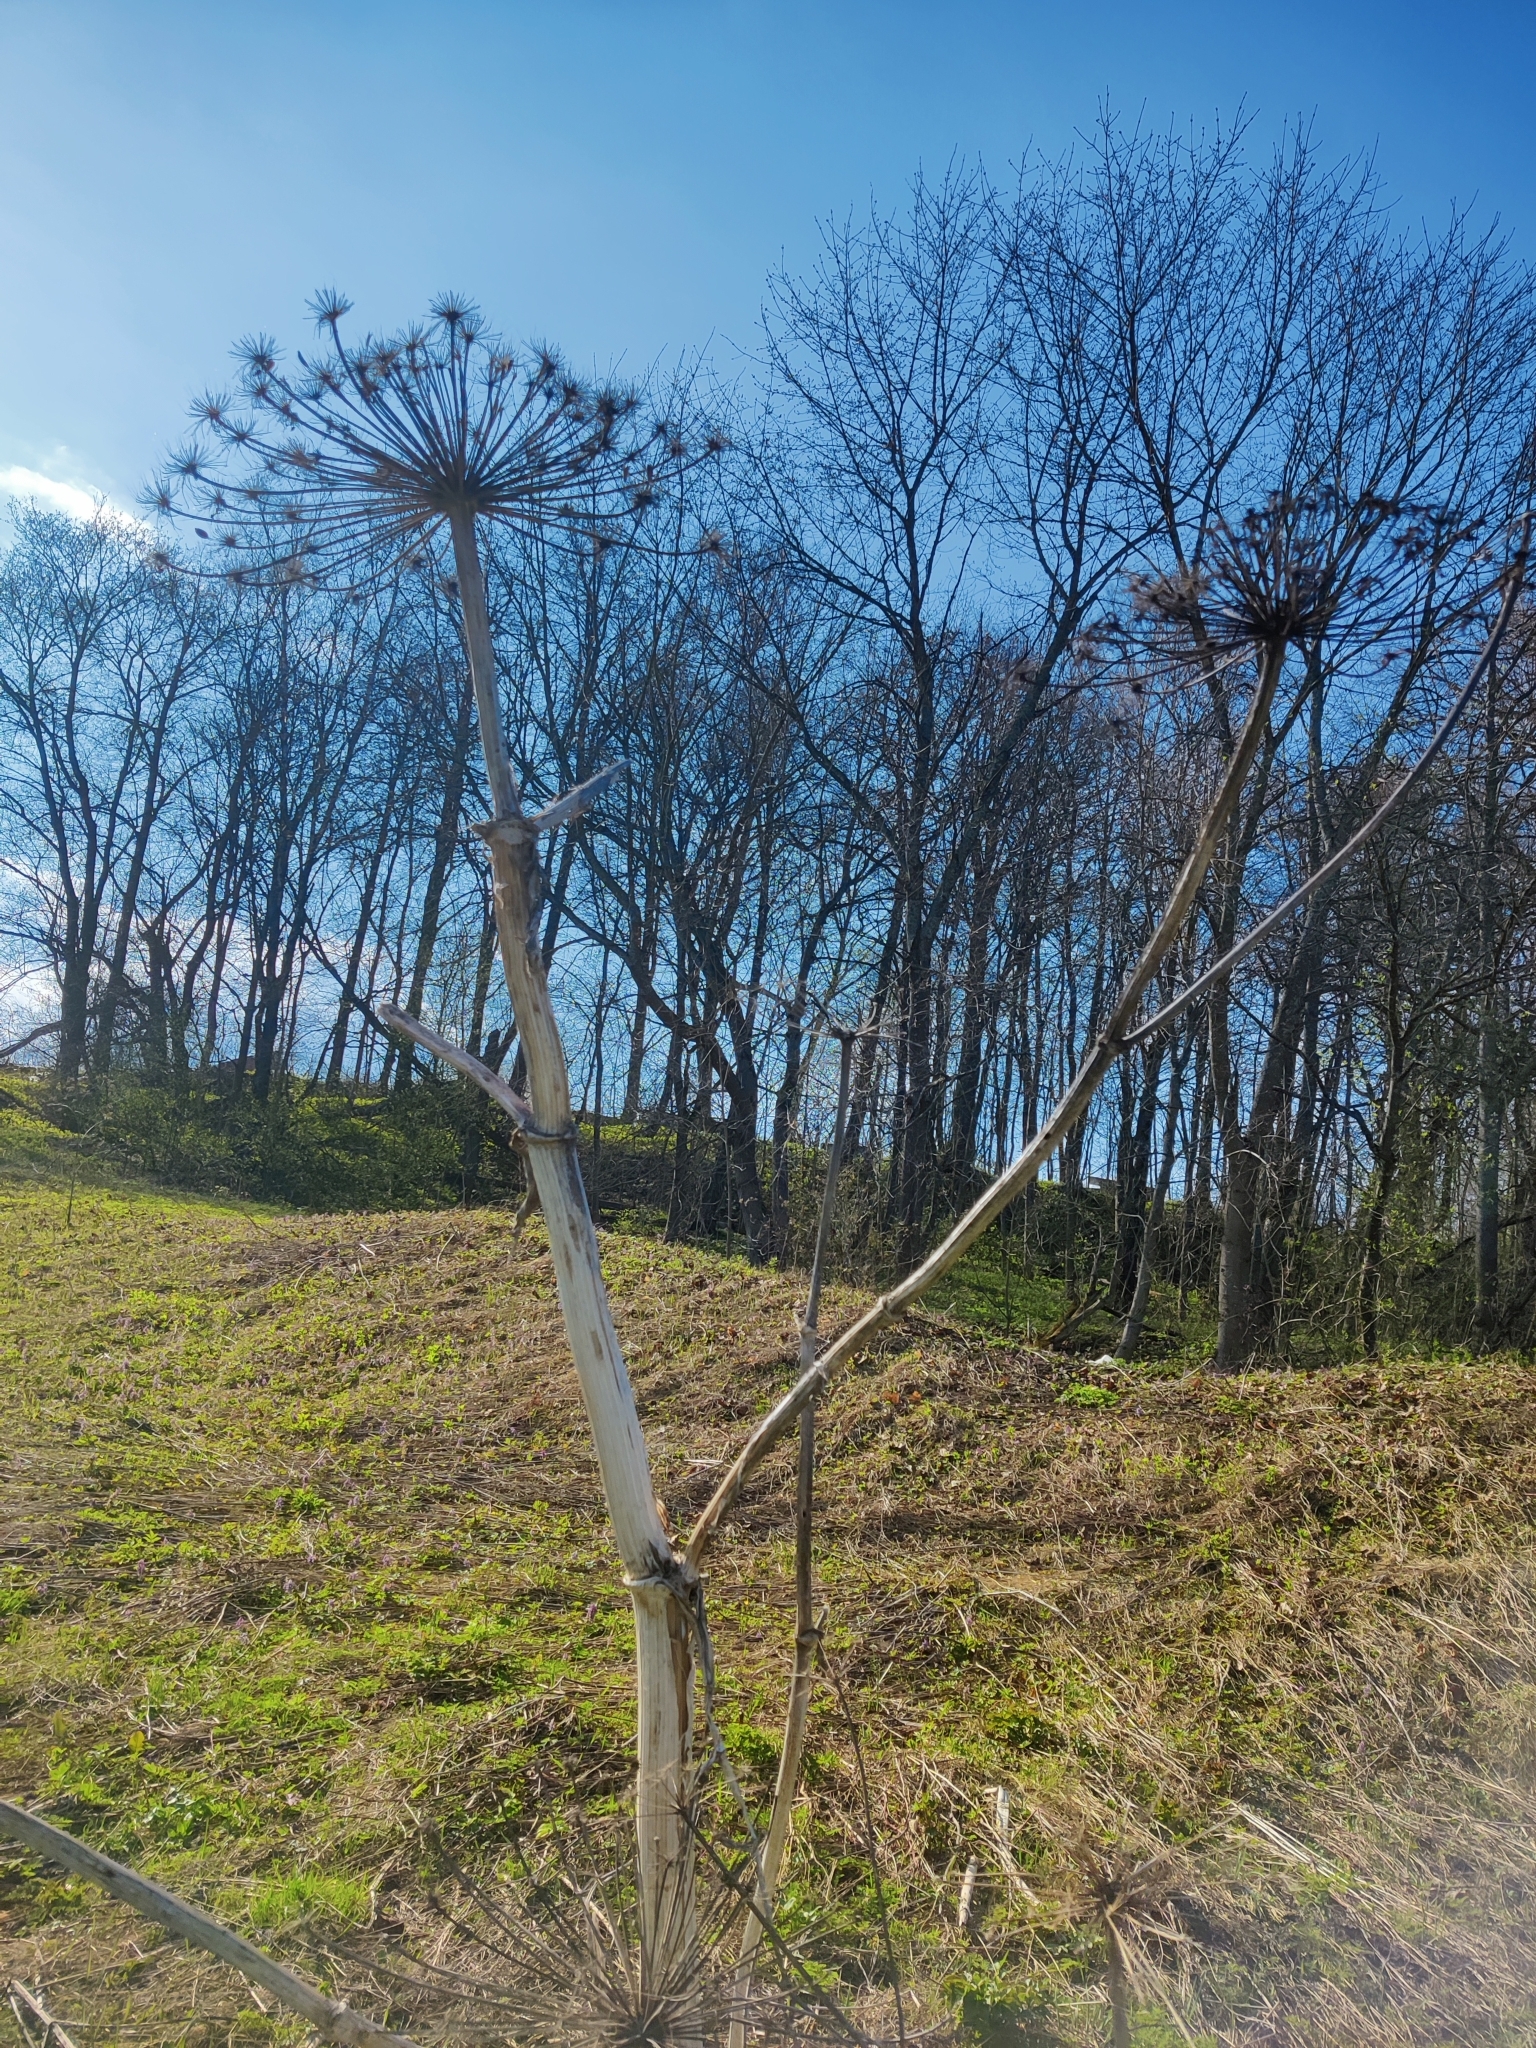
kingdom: Plantae
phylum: Tracheophyta
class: Magnoliopsida
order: Apiales
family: Apiaceae
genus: Heracleum
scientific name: Heracleum sosnowskyi
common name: Sosnowsky's hogweed
